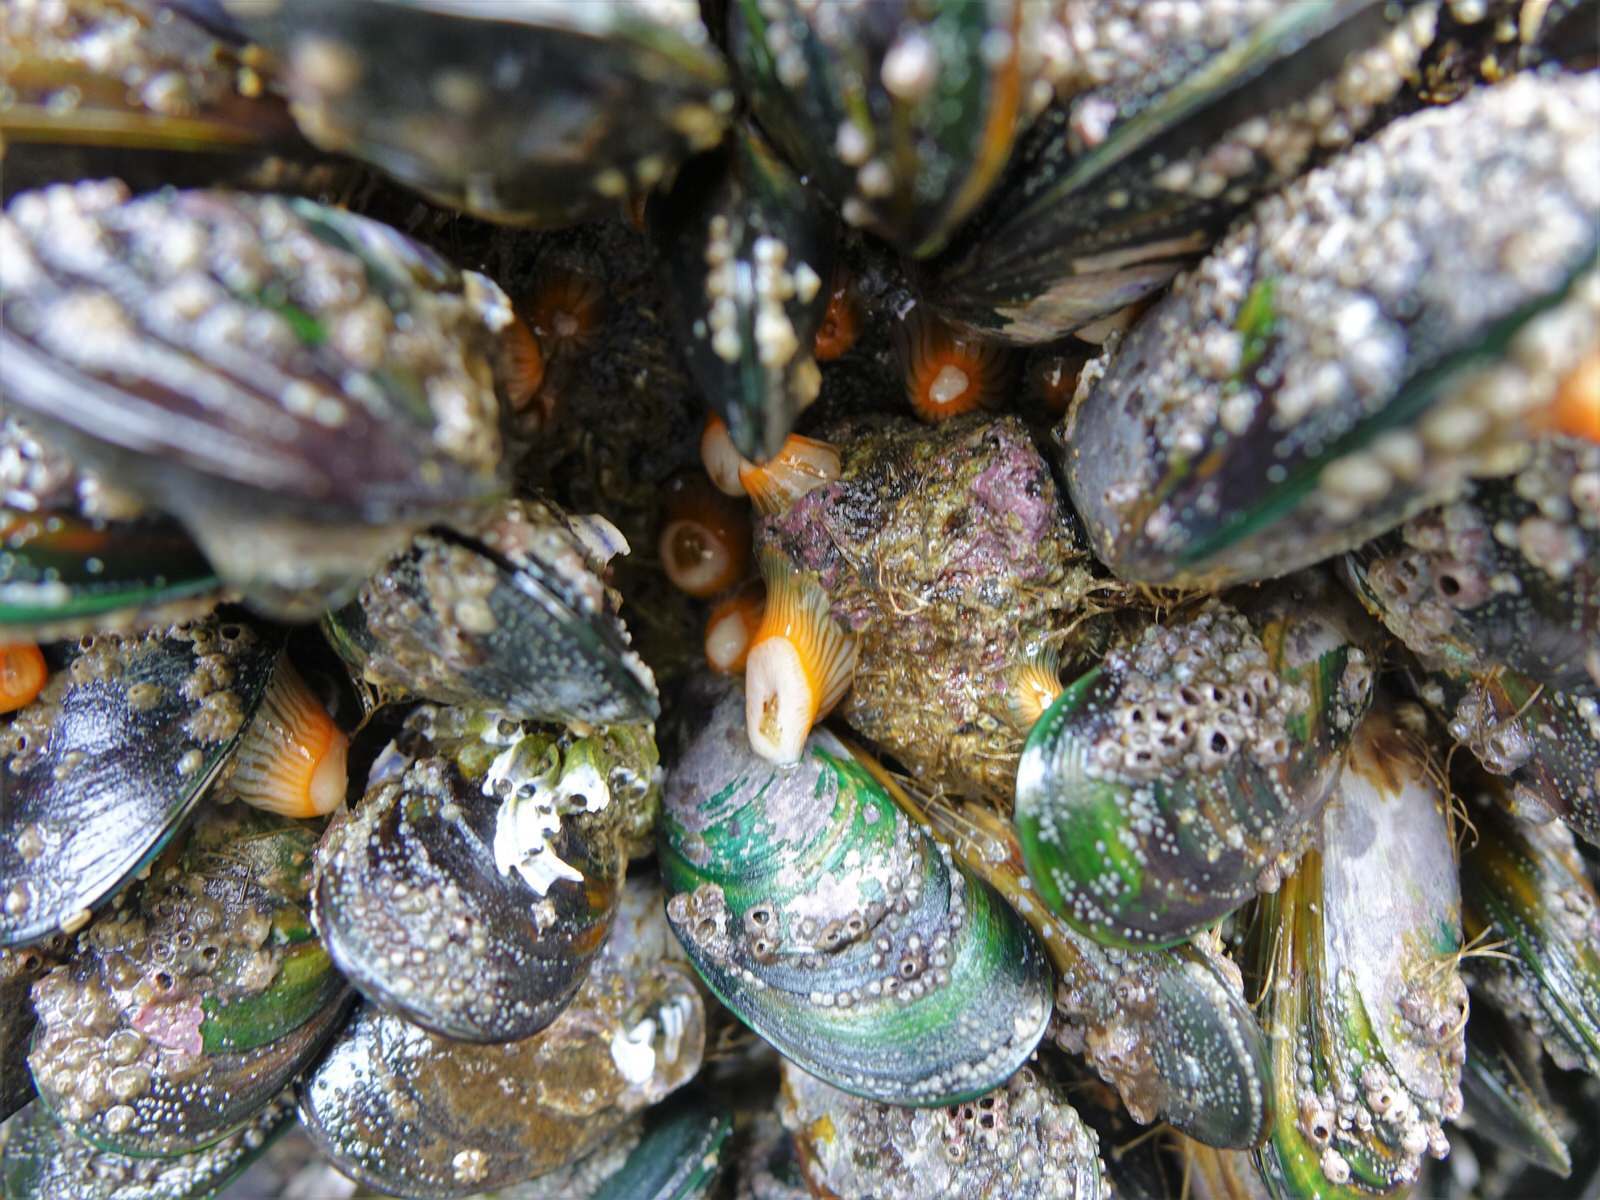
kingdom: Animalia
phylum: Cnidaria
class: Anthozoa
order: Actiniaria
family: Sagartiidae
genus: Anthothoe
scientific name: Anthothoe albocincta
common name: Orange striped anemone
